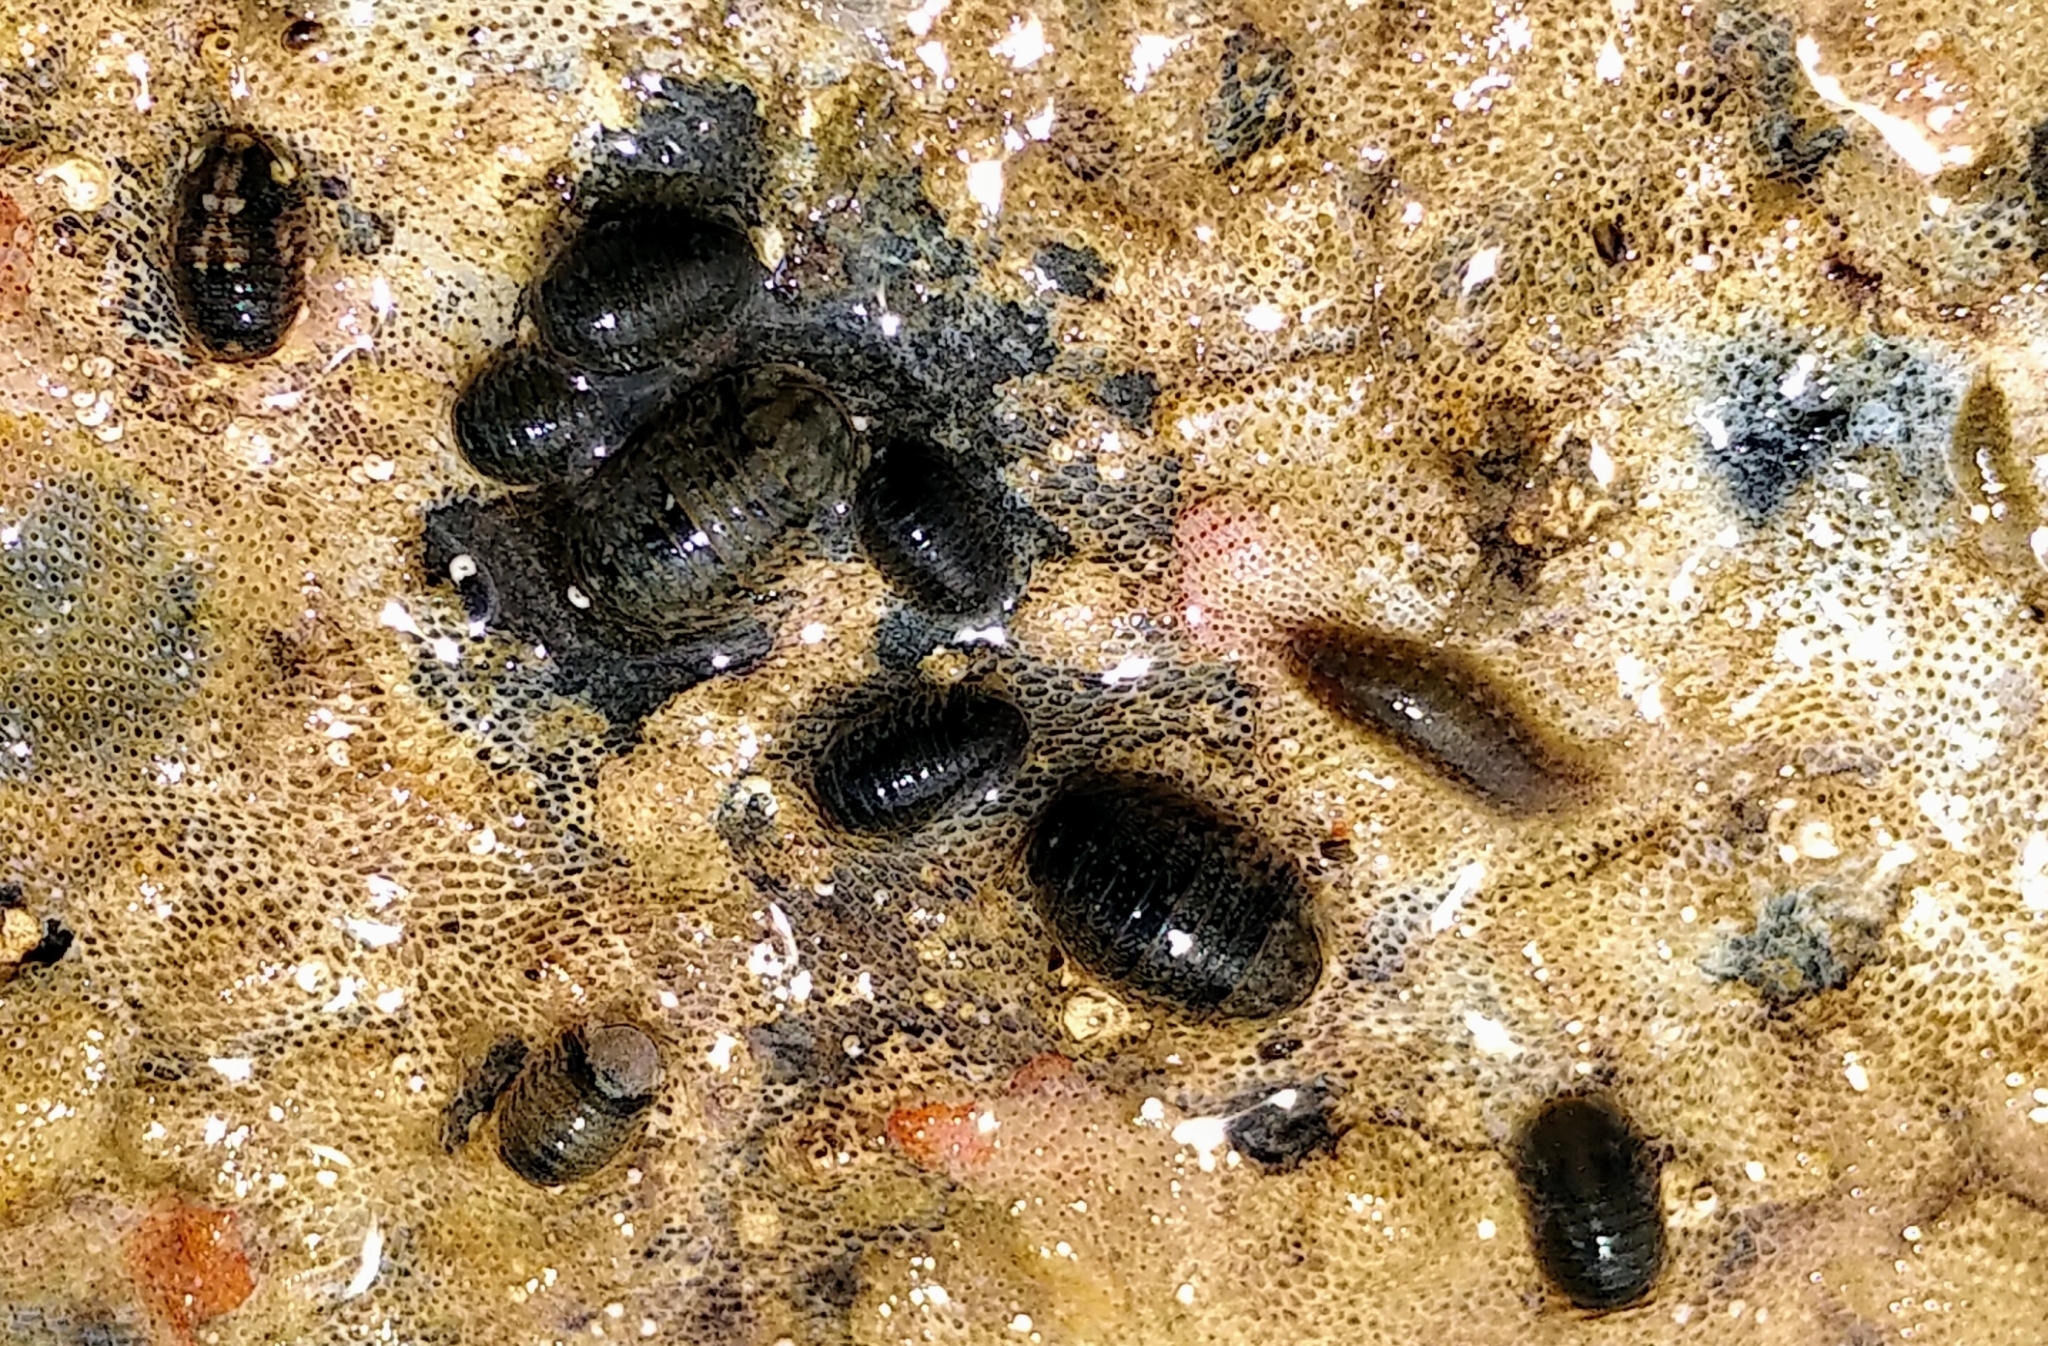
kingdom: Animalia
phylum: Arthropoda
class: Malacostraca
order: Isopoda
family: Sphaeromatidae
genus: Gnorimosphaeroma
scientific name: Gnorimosphaeroma oregonense
